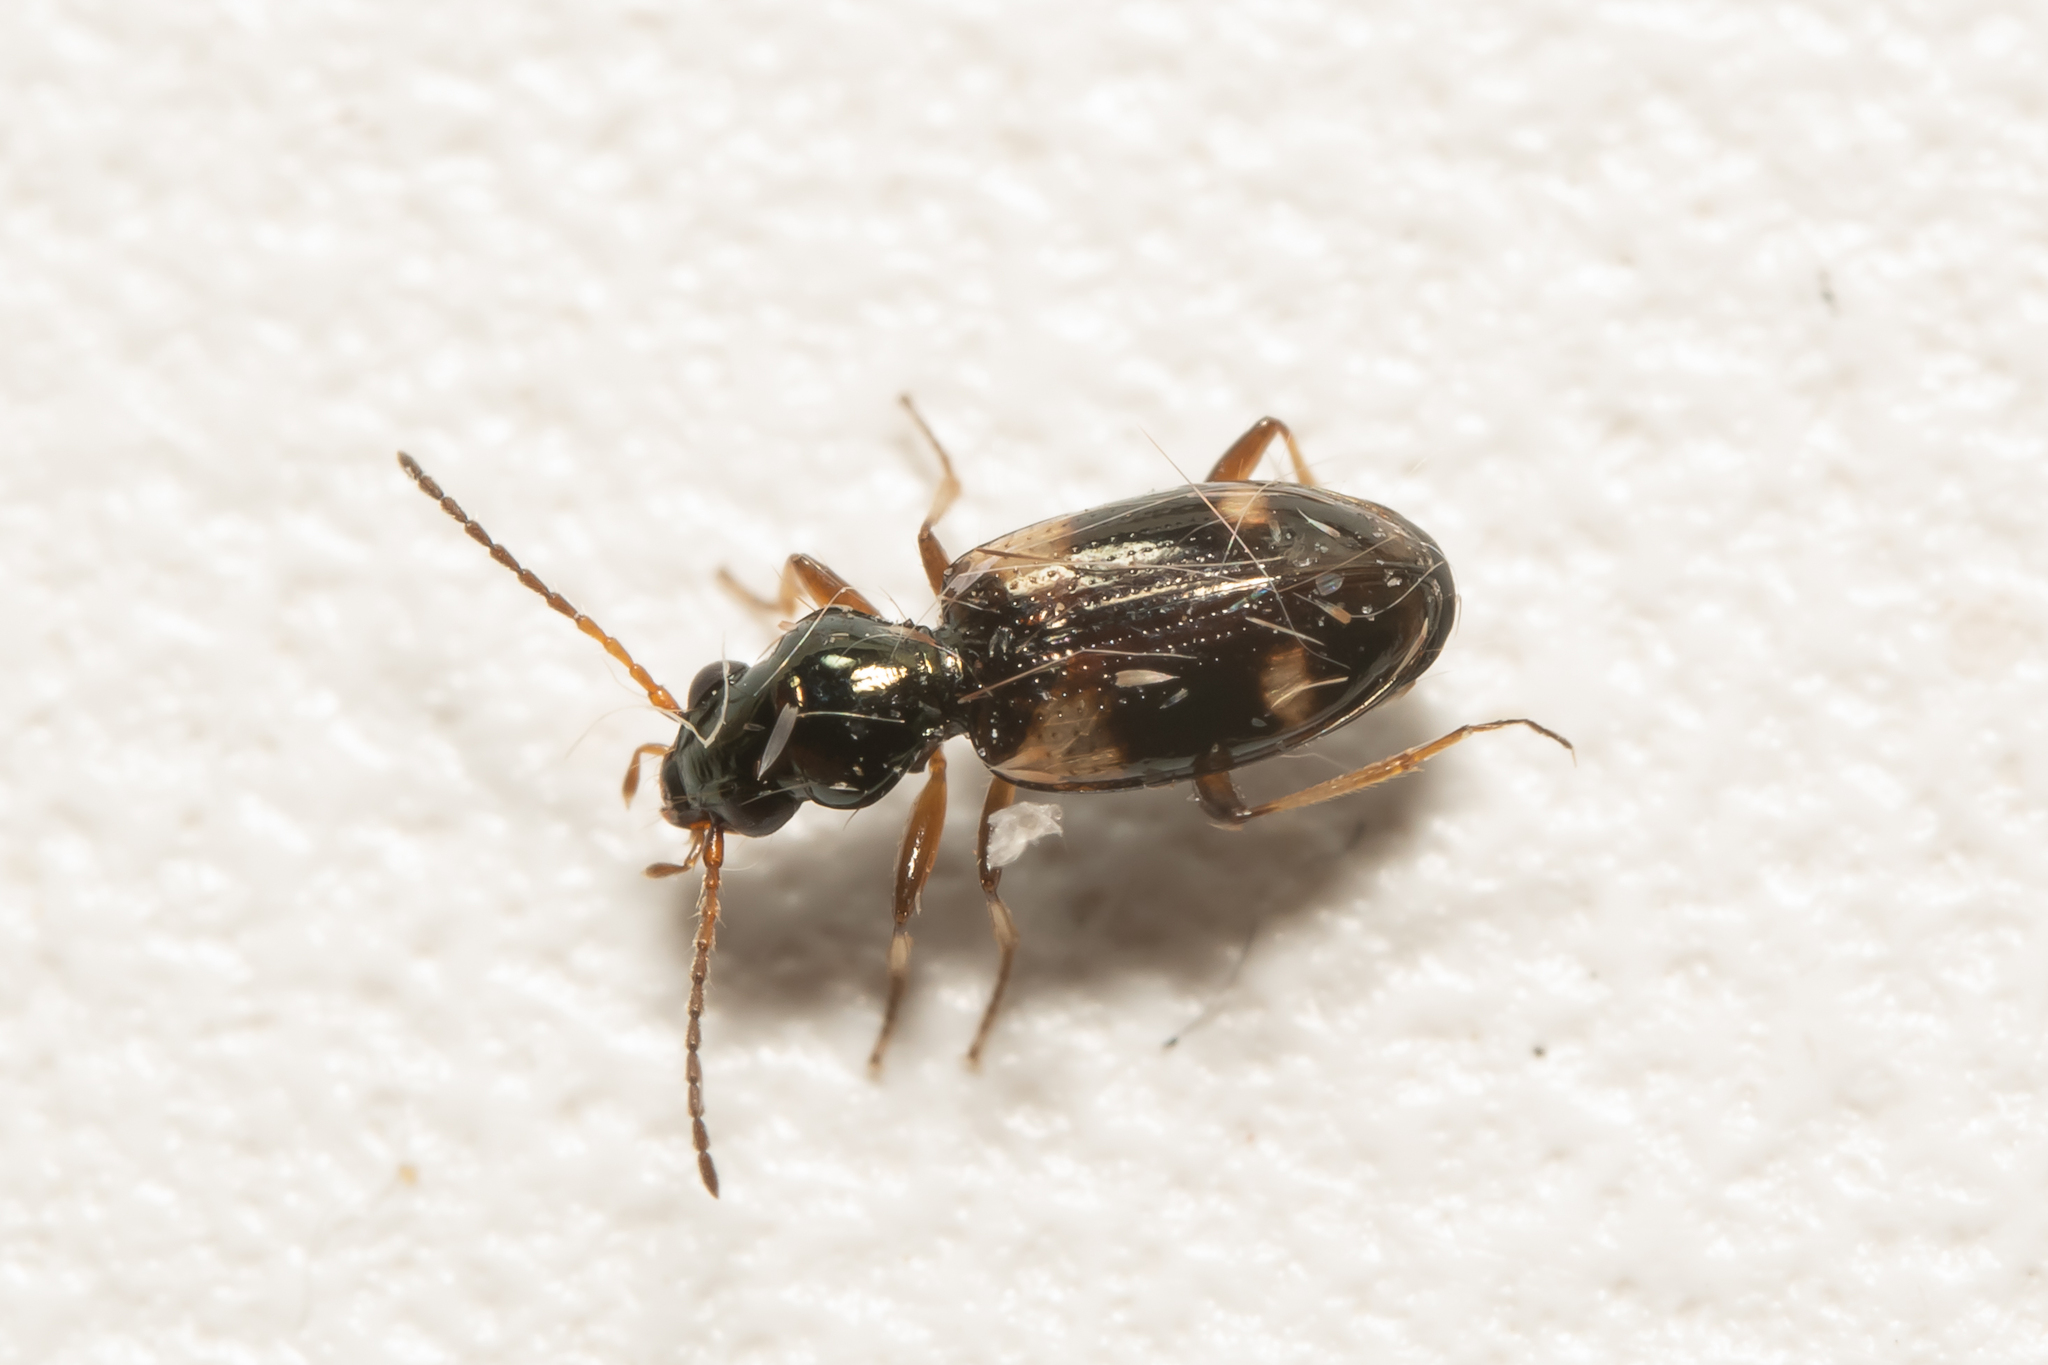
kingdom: Animalia
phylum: Arthropoda
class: Insecta
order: Coleoptera
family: Carabidae
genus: Bembidion
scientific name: Bembidion quadrimaculatum
